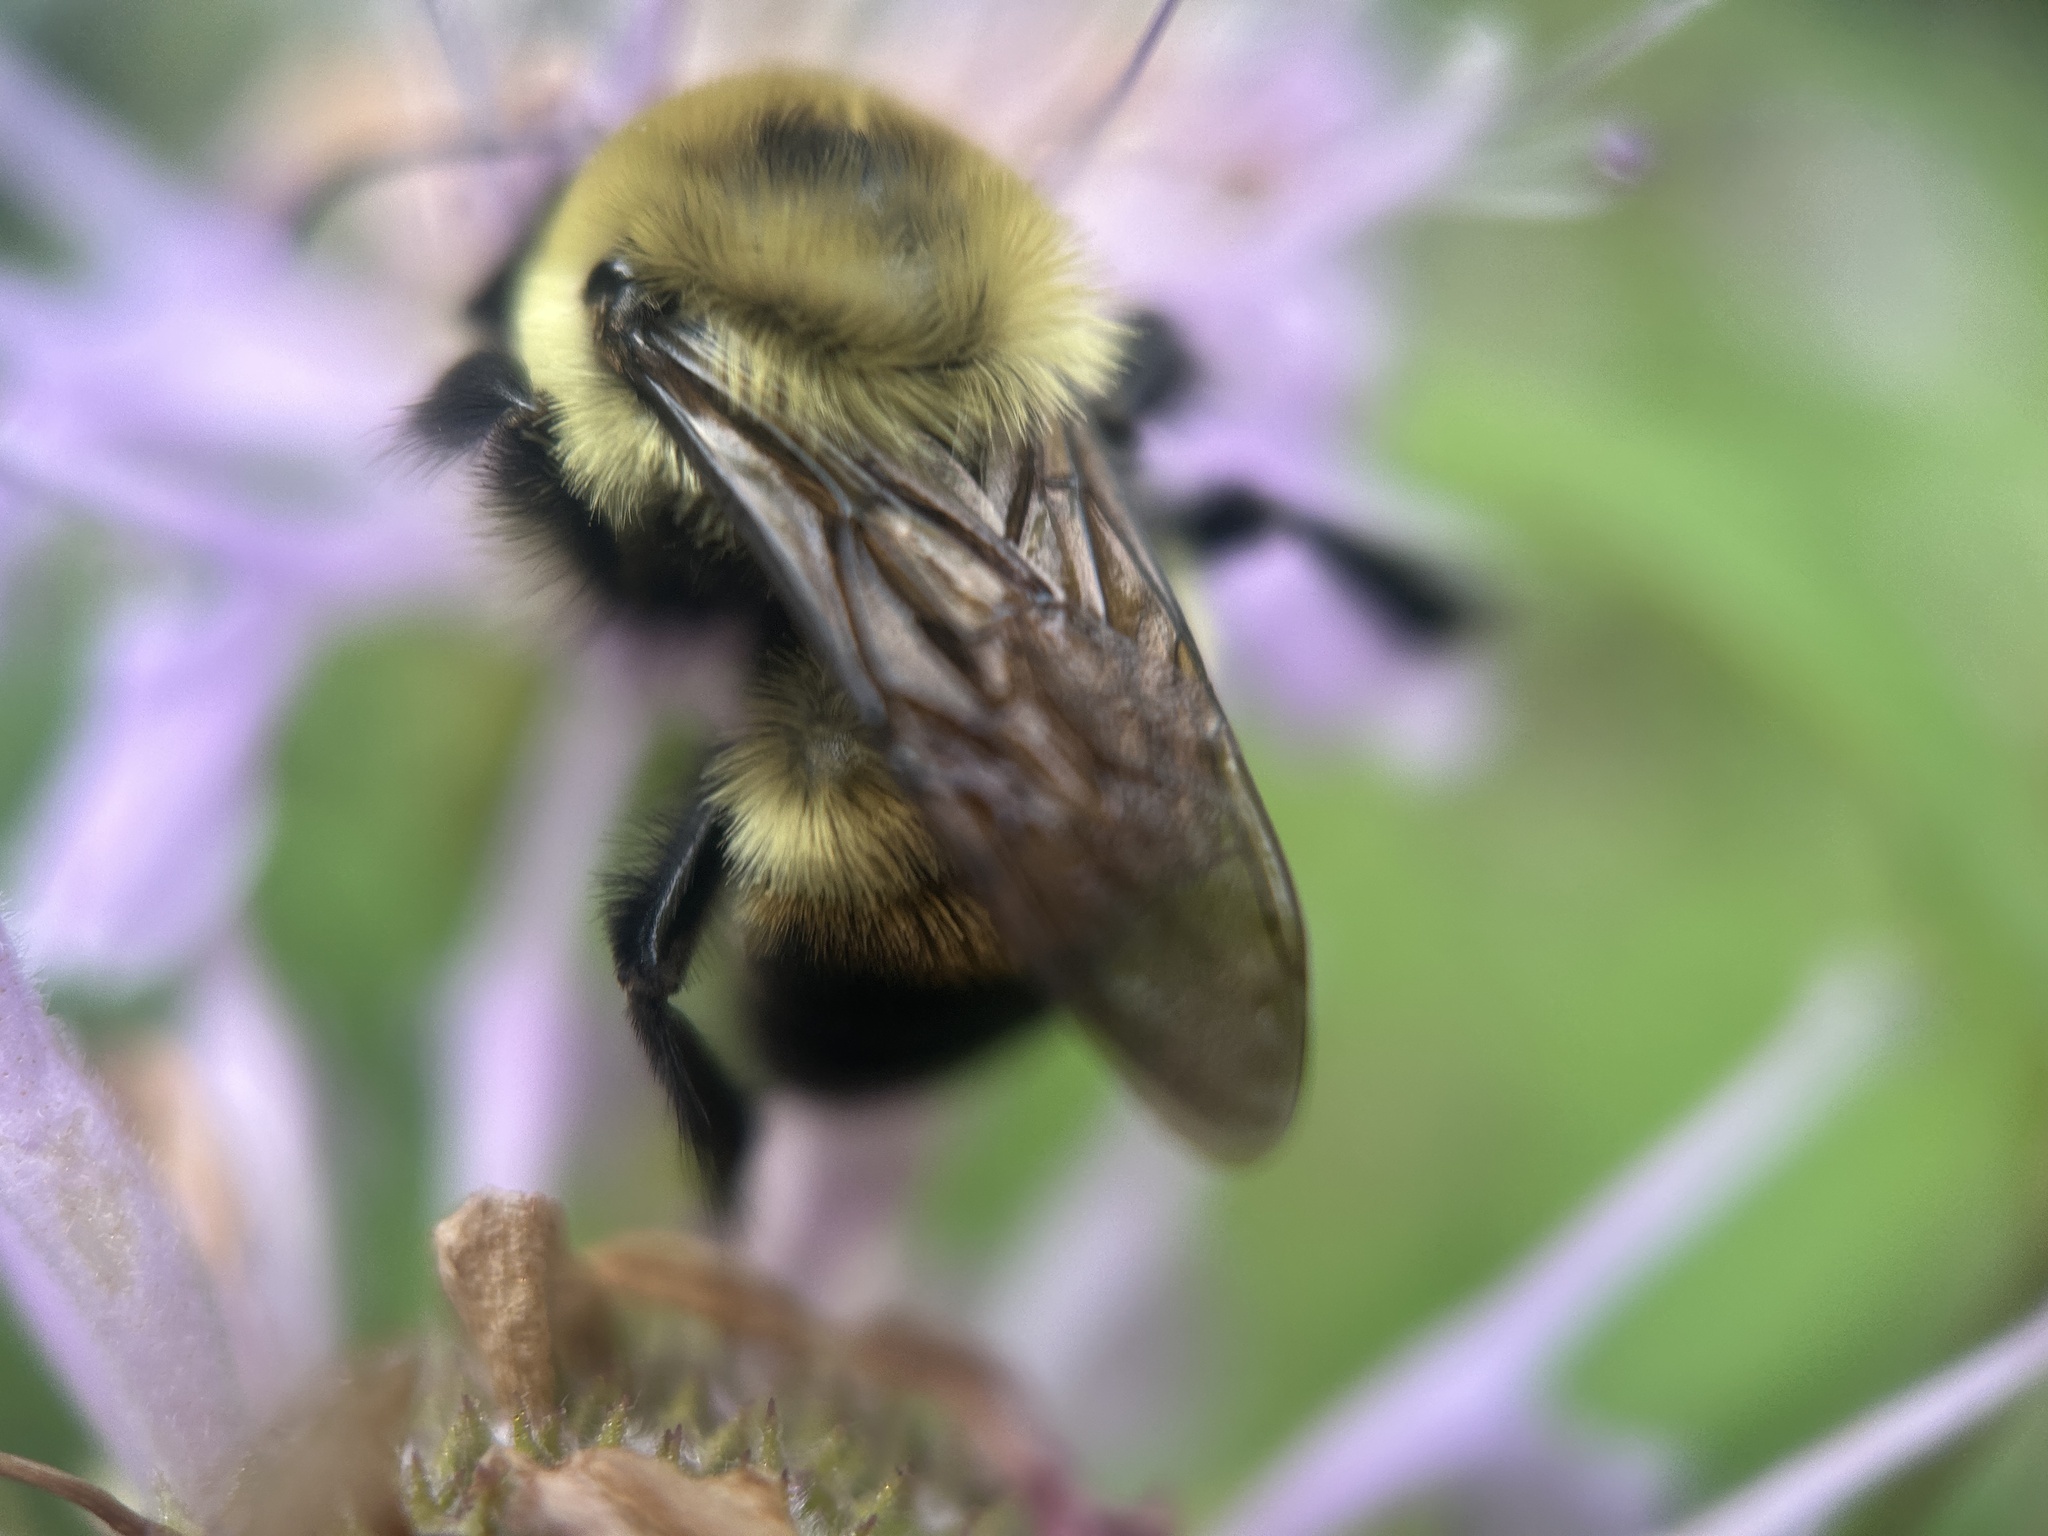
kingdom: Animalia
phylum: Arthropoda
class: Insecta
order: Hymenoptera
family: Apidae
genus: Bombus
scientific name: Bombus griseocollis
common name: Brown-belted bumble bee
